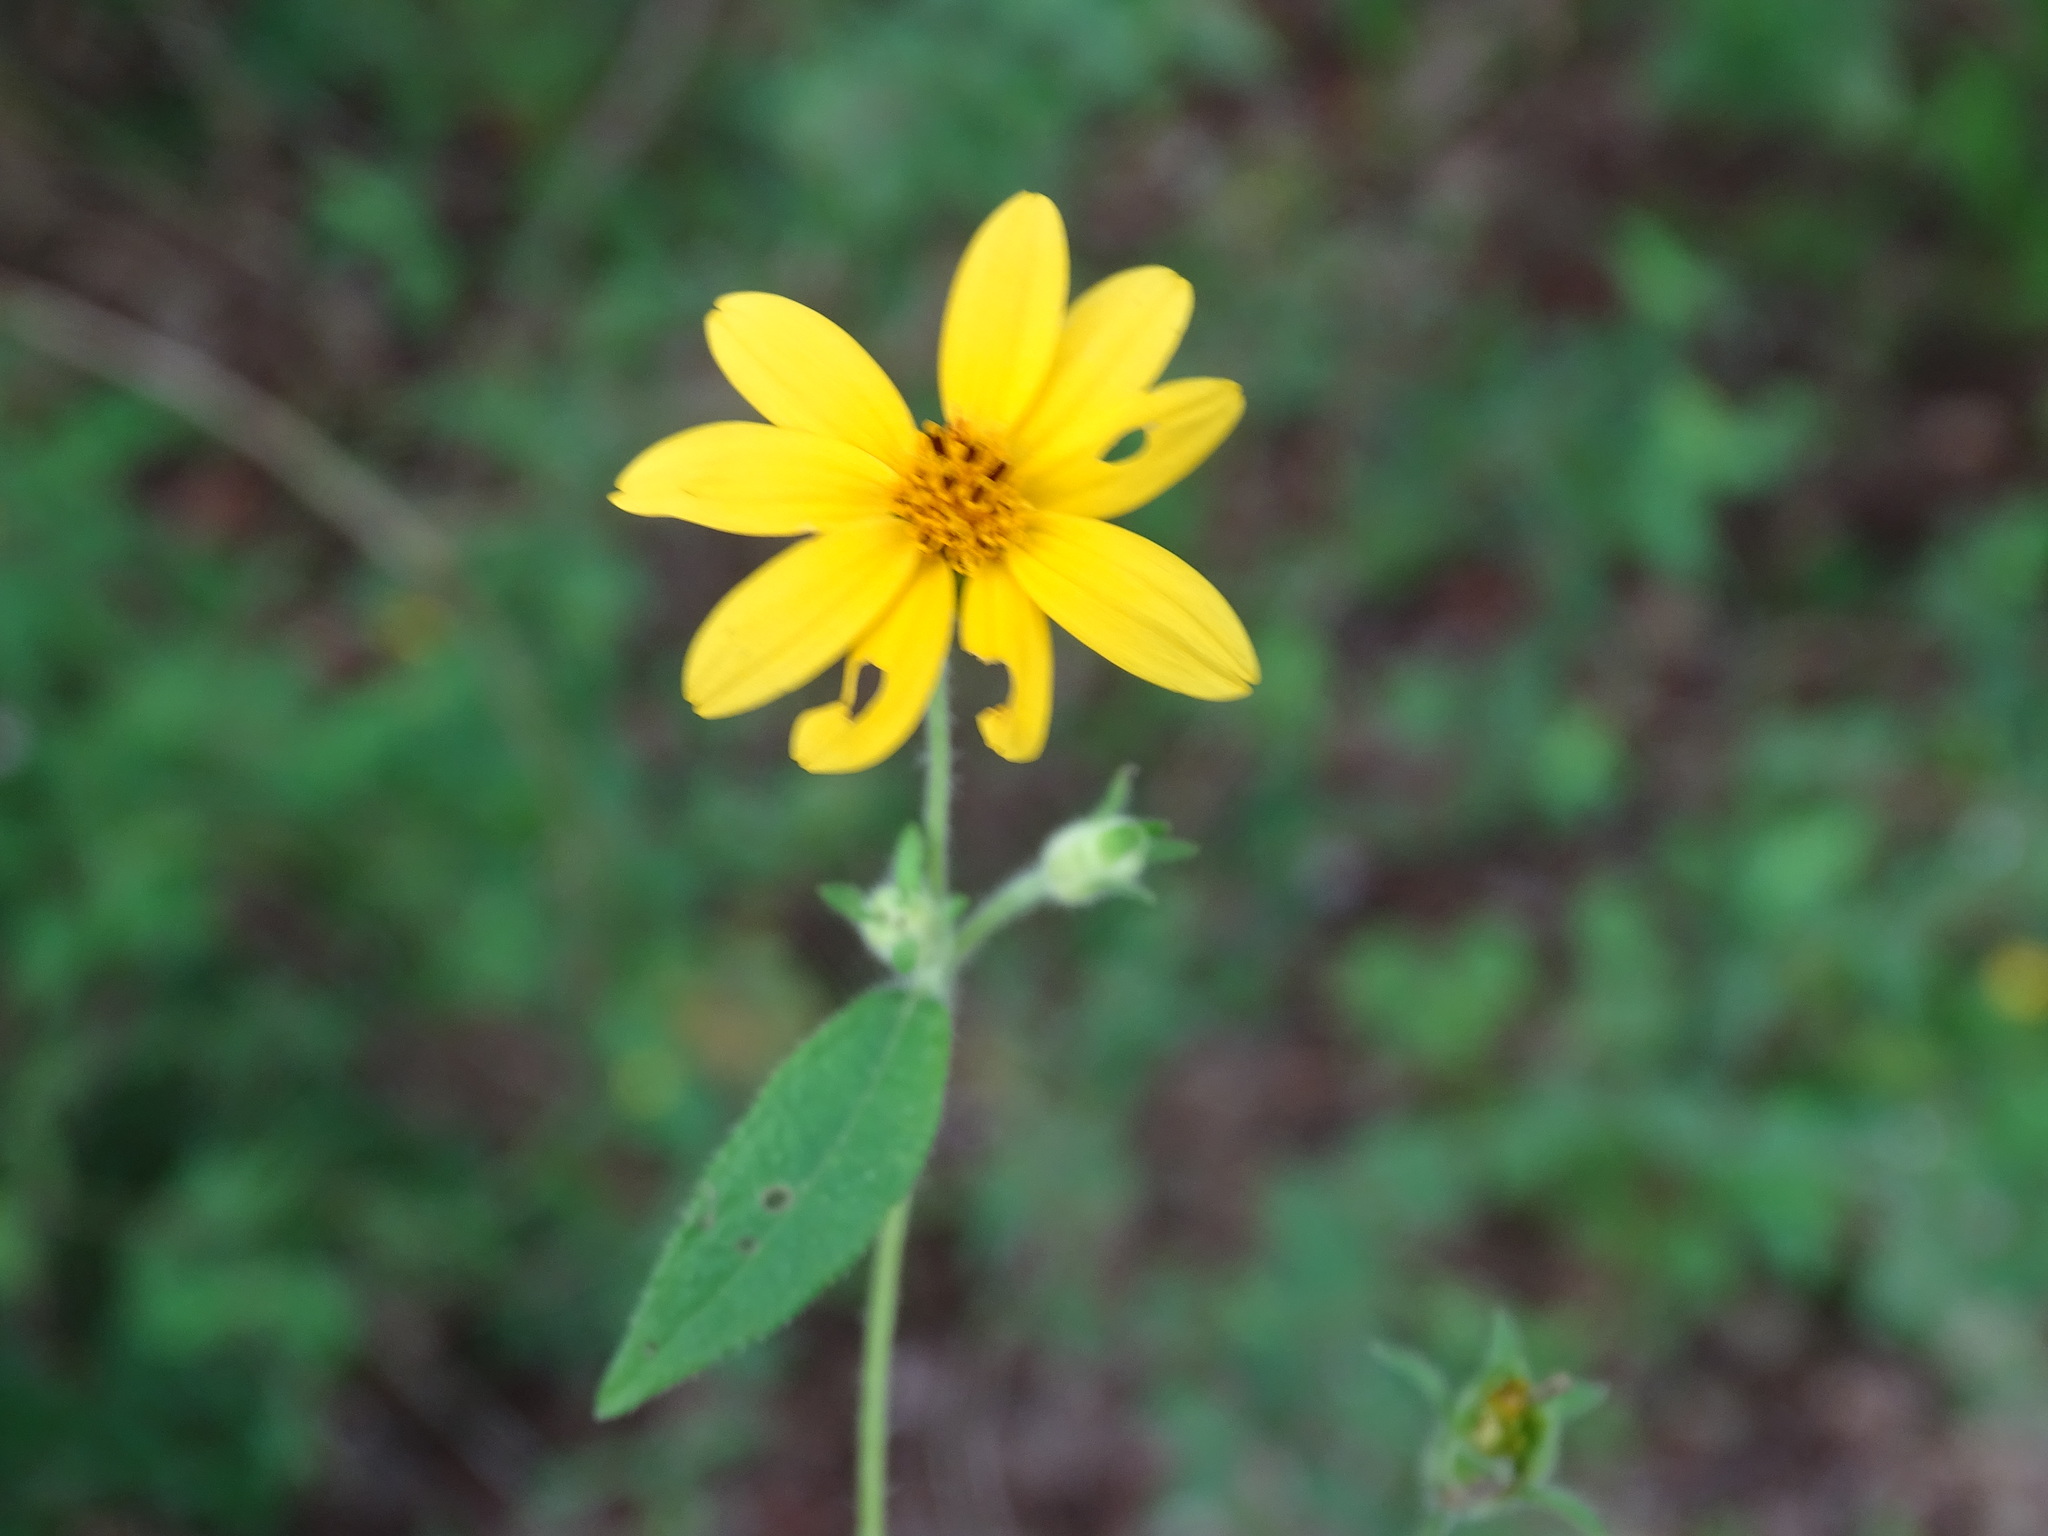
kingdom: Plantae
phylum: Tracheophyta
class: Magnoliopsida
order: Asterales
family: Asteraceae
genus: Wedelia
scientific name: Wedelia acapulcensis
